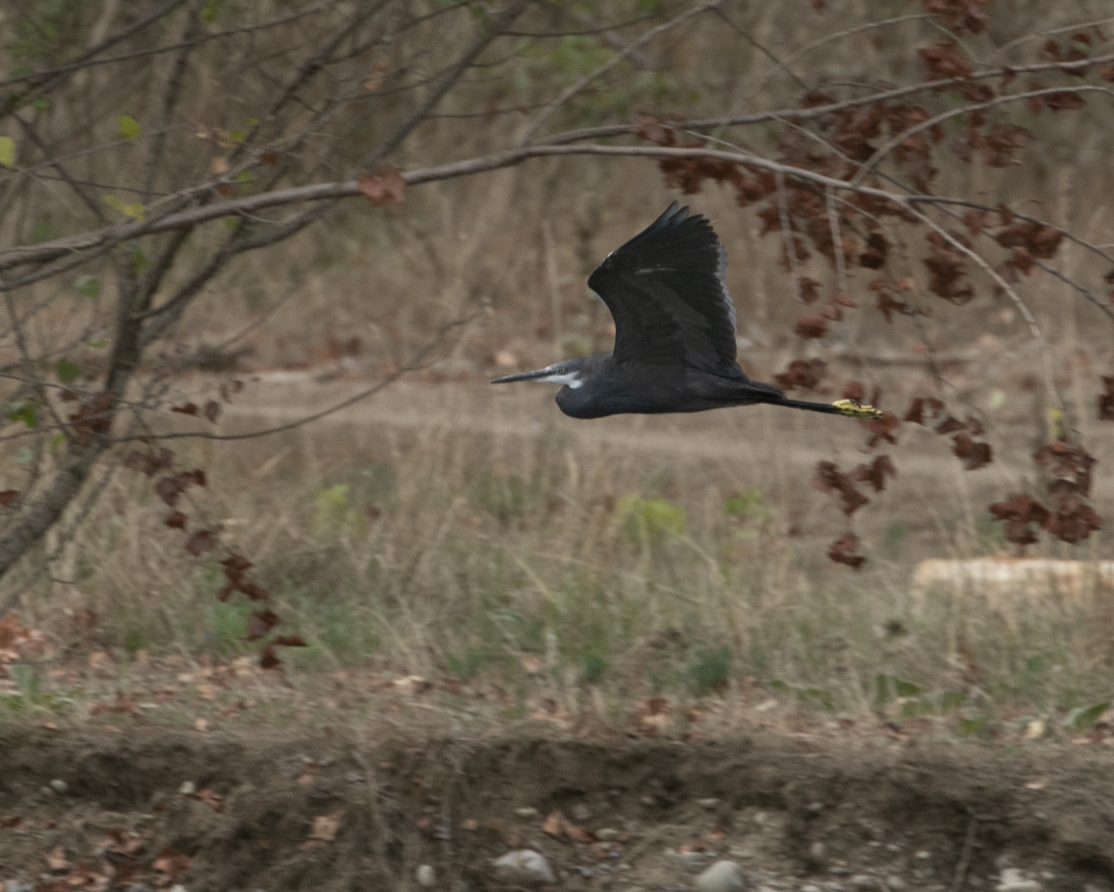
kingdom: Animalia
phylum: Chordata
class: Aves
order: Pelecaniformes
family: Ardeidae
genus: Egretta
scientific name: Egretta gularis
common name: Western reef-heron
